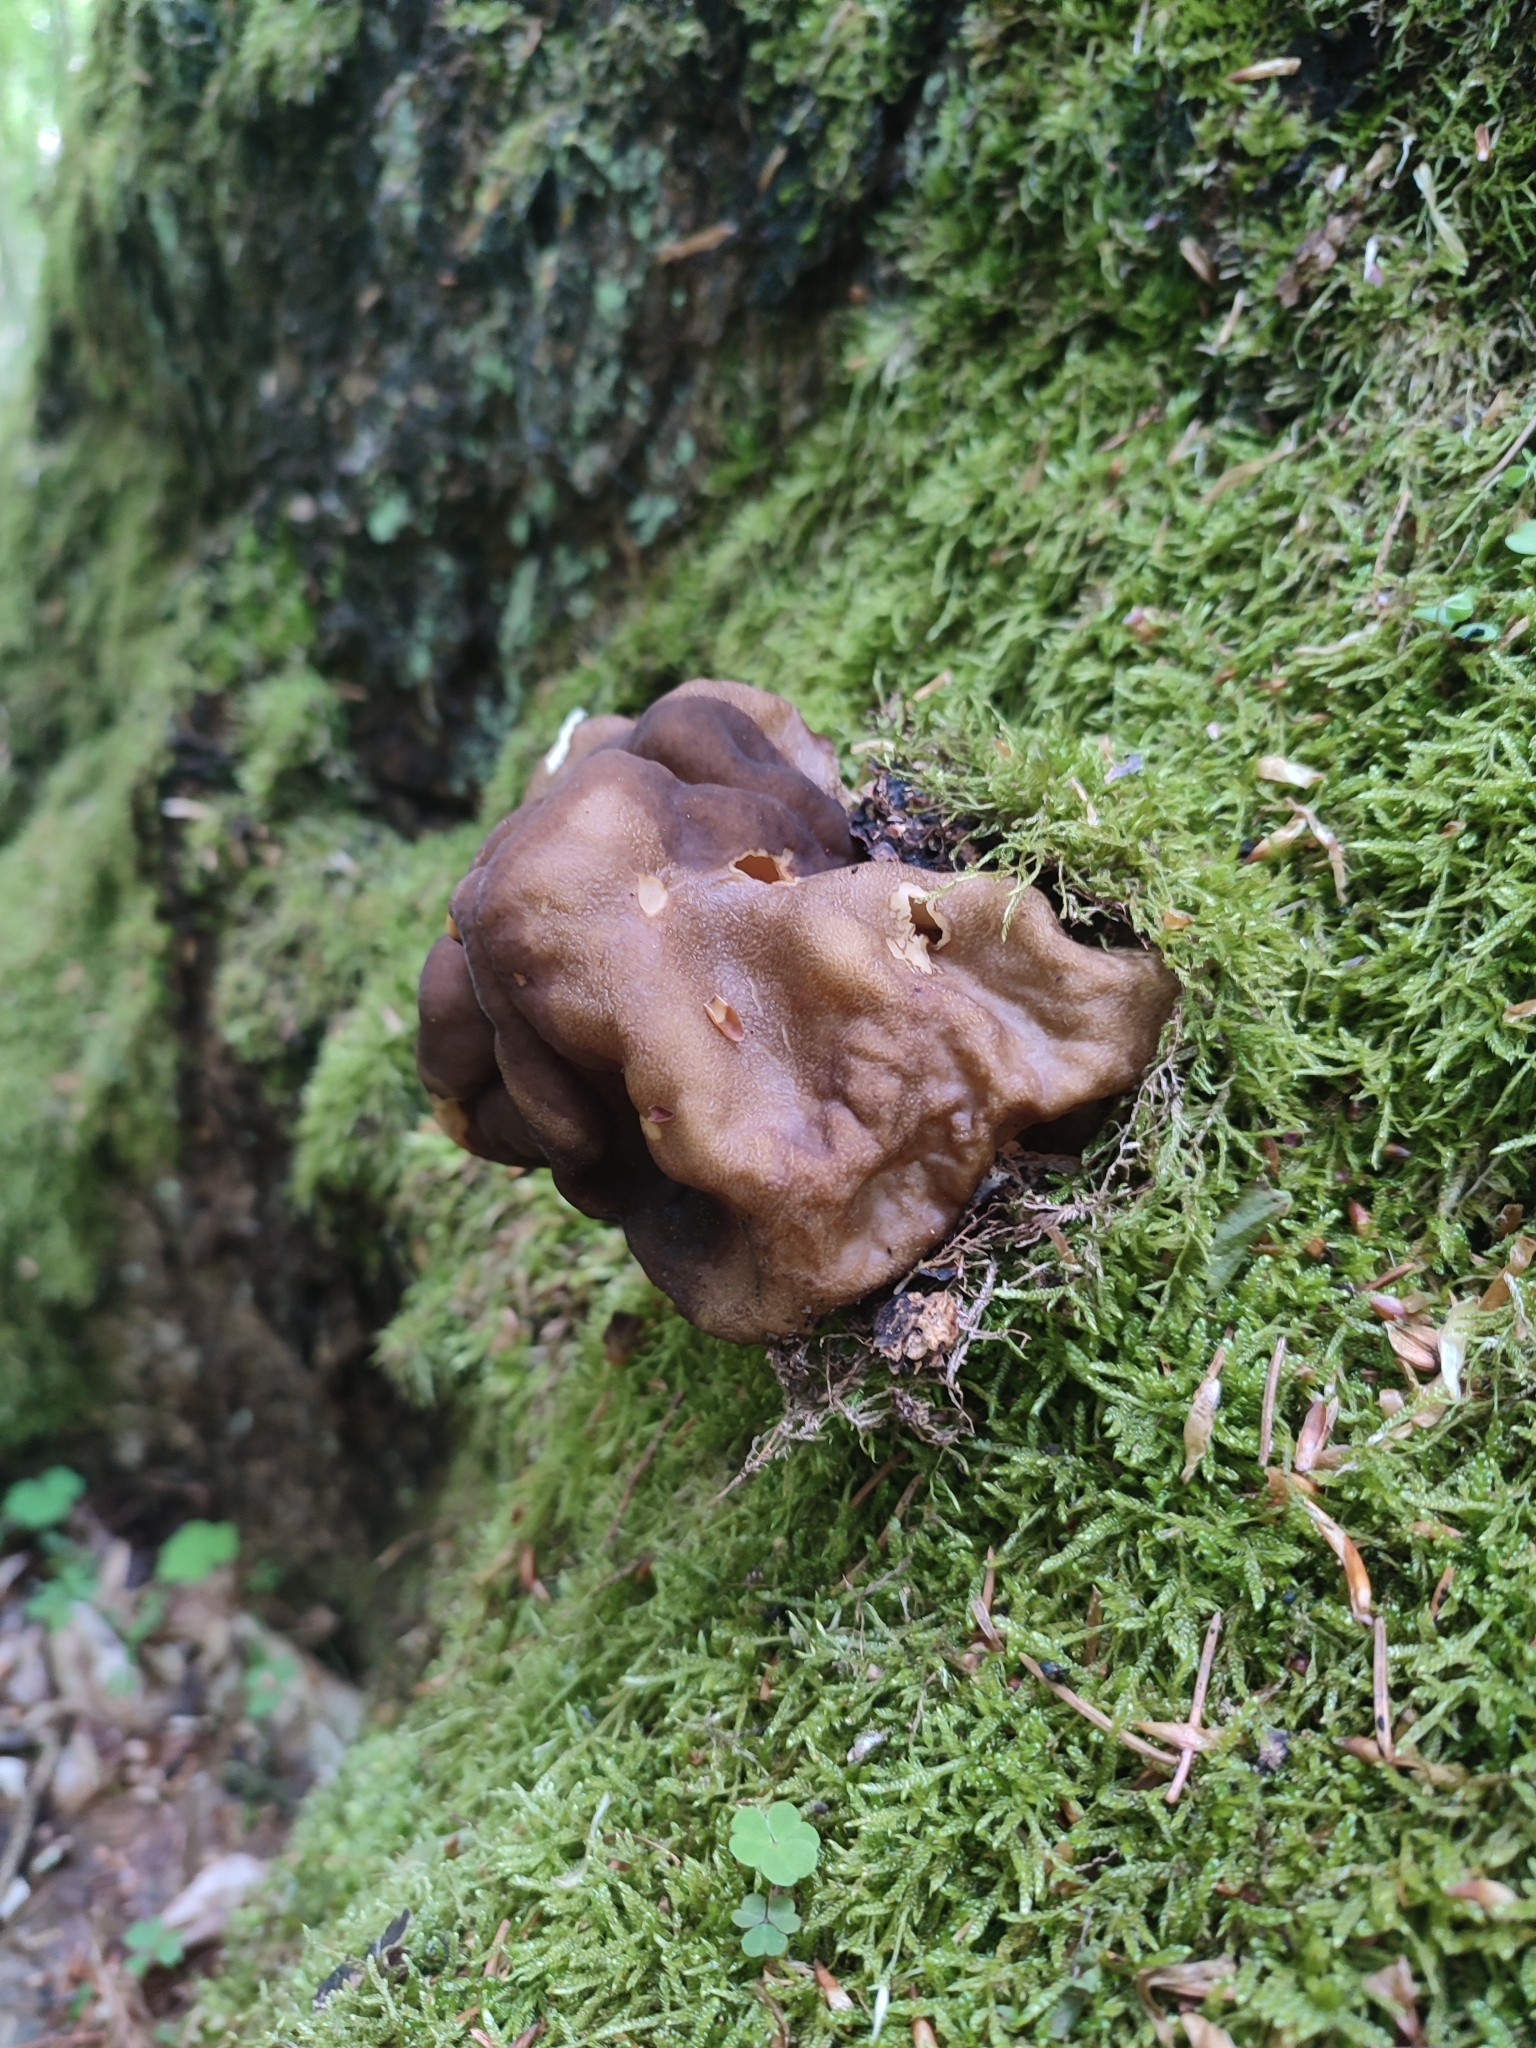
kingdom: Fungi
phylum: Ascomycota
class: Pezizomycetes
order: Pezizales
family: Discinaceae
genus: Gyromitra
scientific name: Gyromitra sphaerospora
